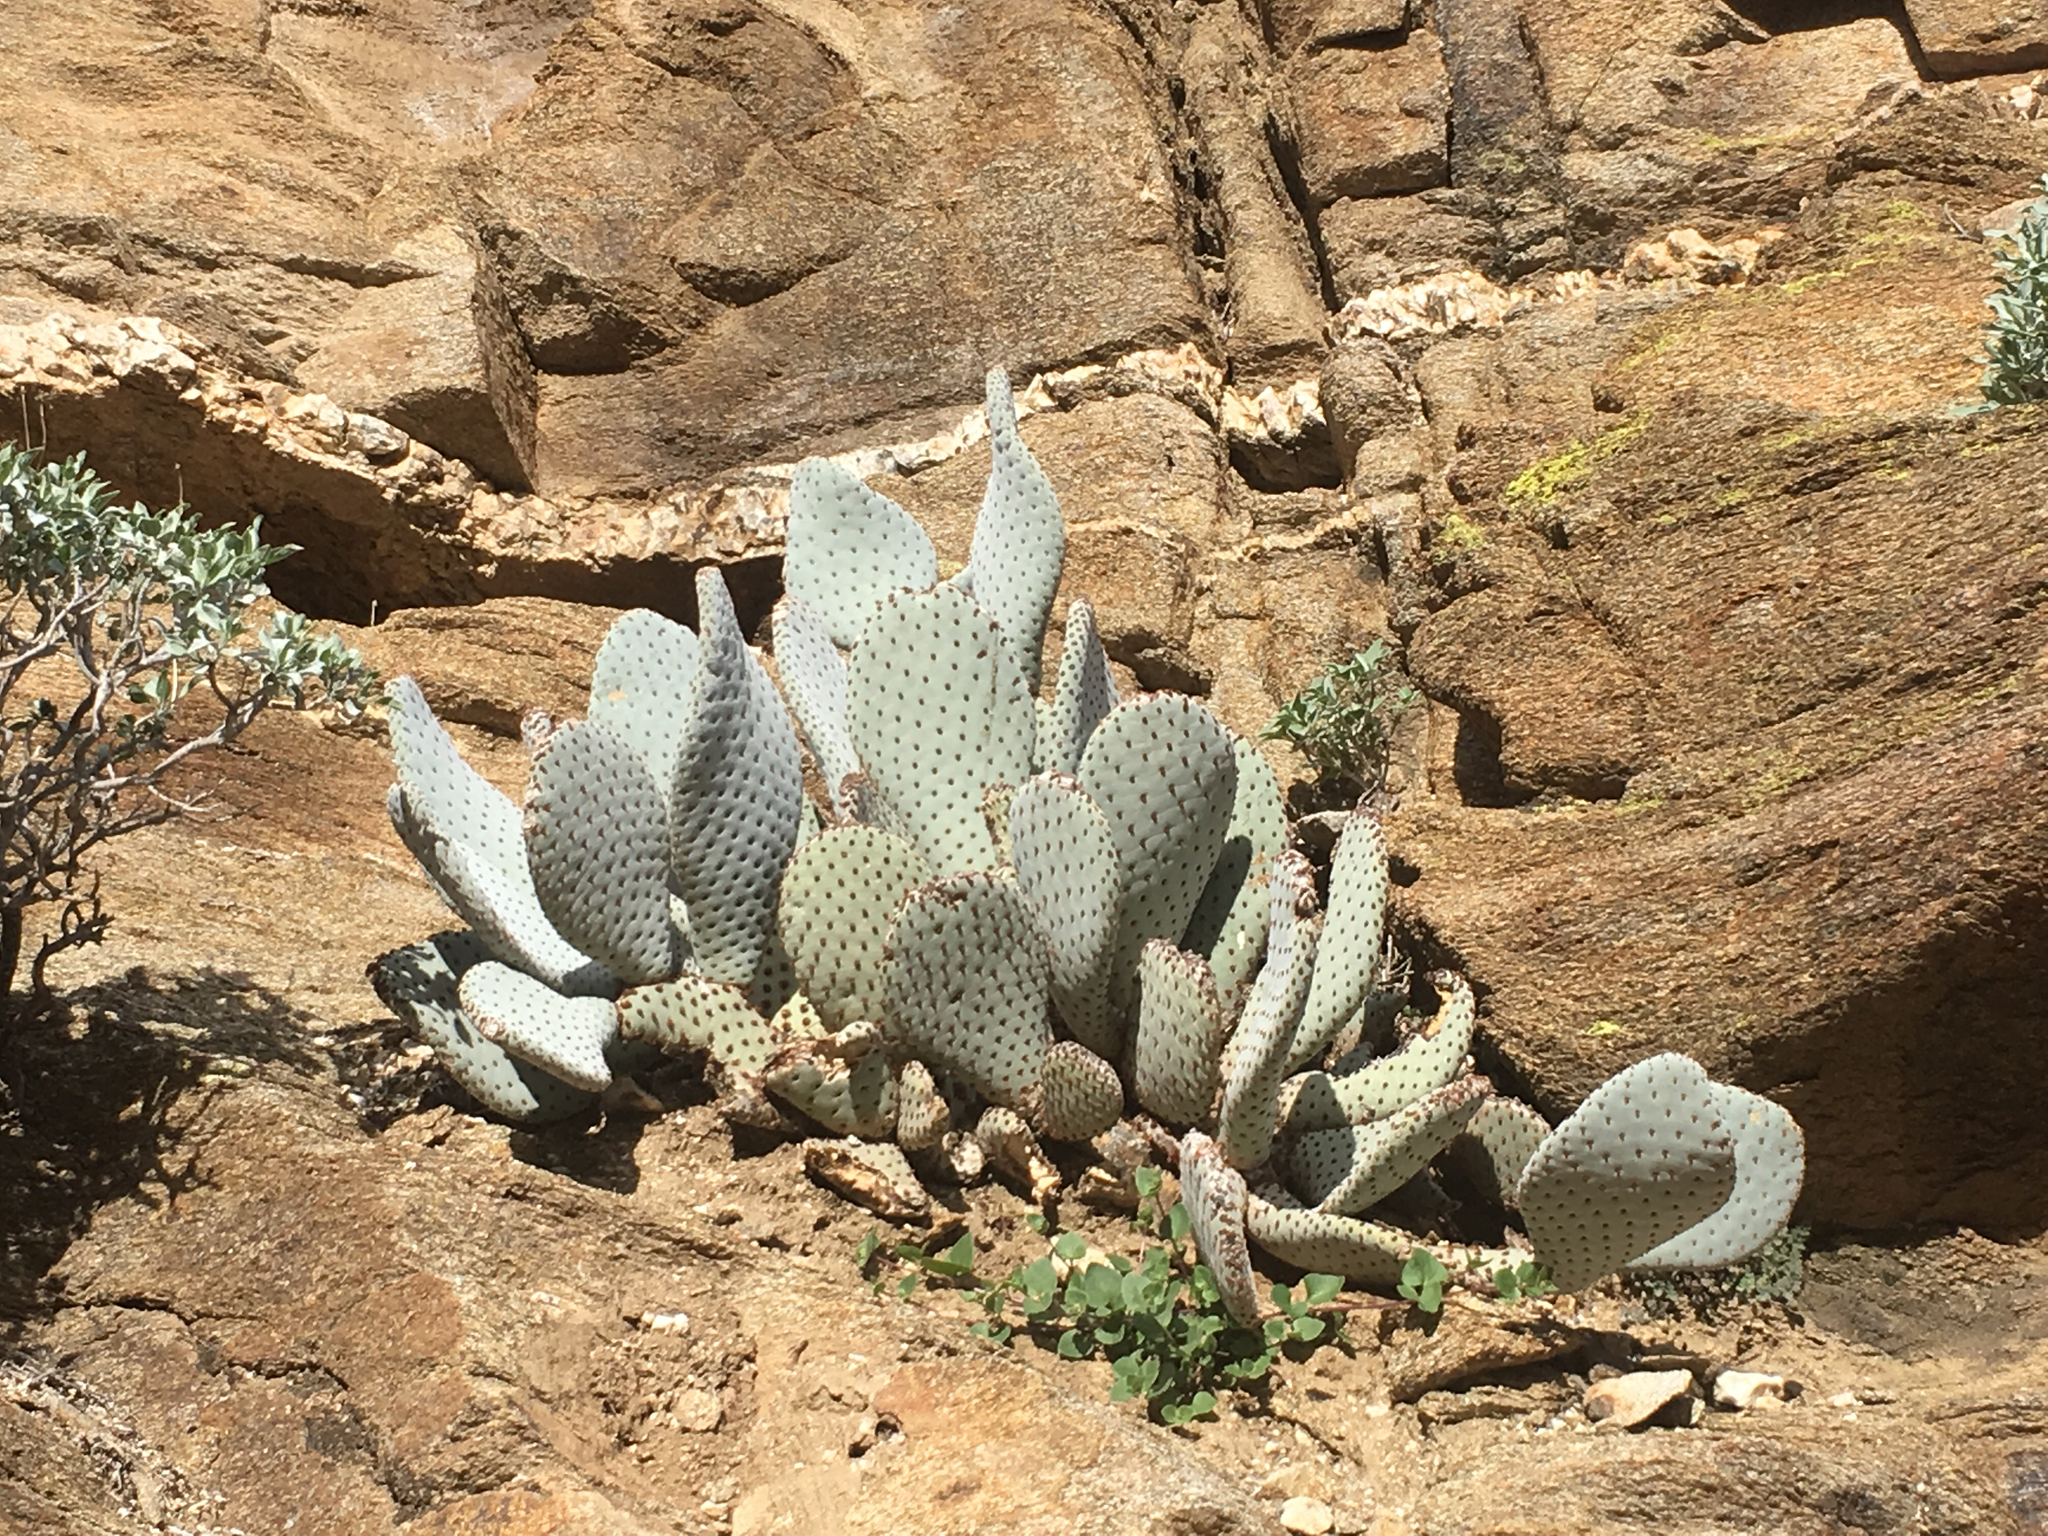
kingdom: Plantae
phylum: Tracheophyta
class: Magnoliopsida
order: Caryophyllales
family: Cactaceae
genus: Opuntia
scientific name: Opuntia basilaris
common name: Beavertail prickly-pear
